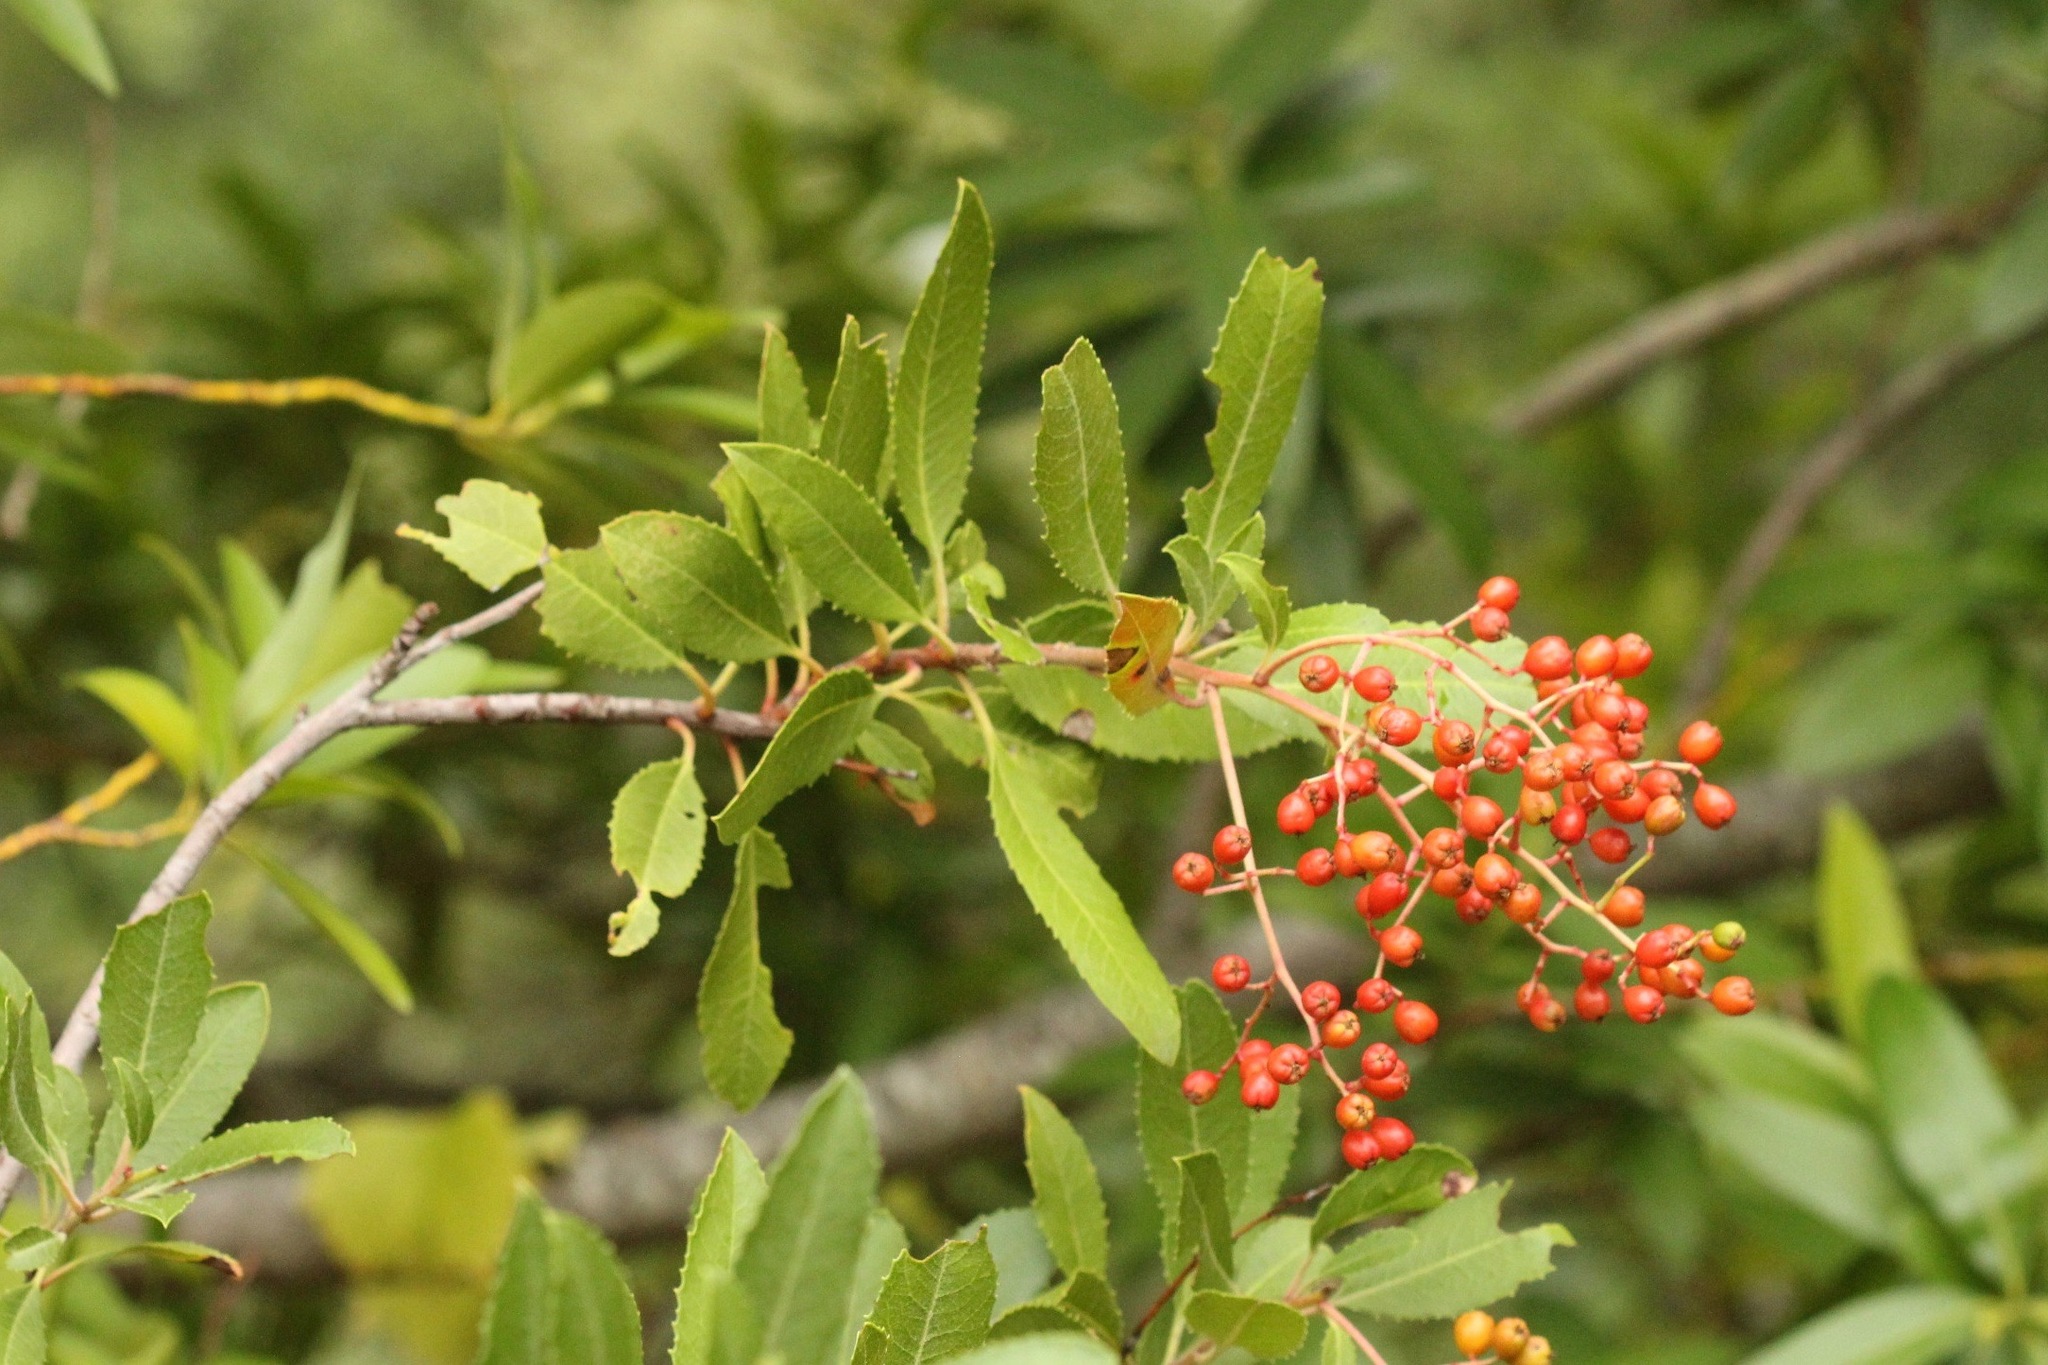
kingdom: Plantae
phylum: Tracheophyta
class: Magnoliopsida
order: Rosales
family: Rosaceae
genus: Heteromeles
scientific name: Heteromeles arbutifolia
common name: California-holly
